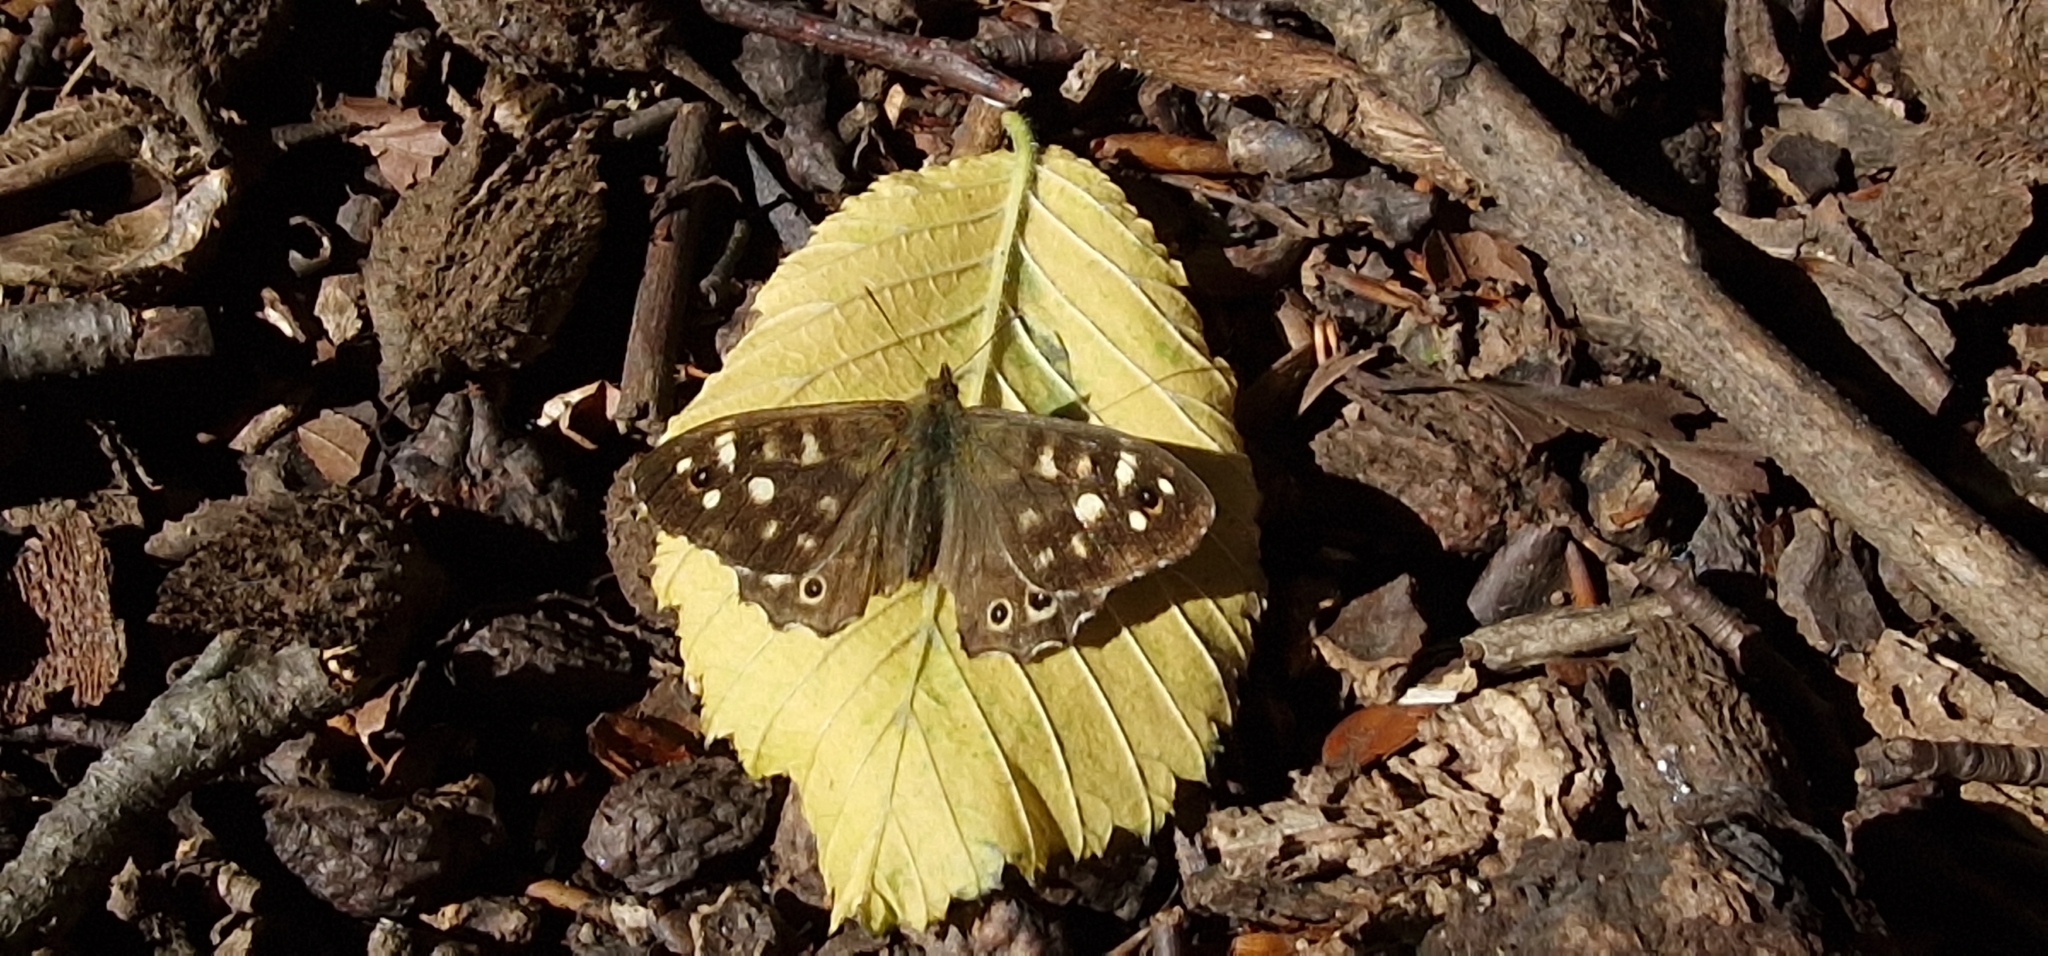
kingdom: Animalia
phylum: Arthropoda
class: Insecta
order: Lepidoptera
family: Nymphalidae
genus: Pararge
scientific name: Pararge aegeria
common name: Speckled wood
